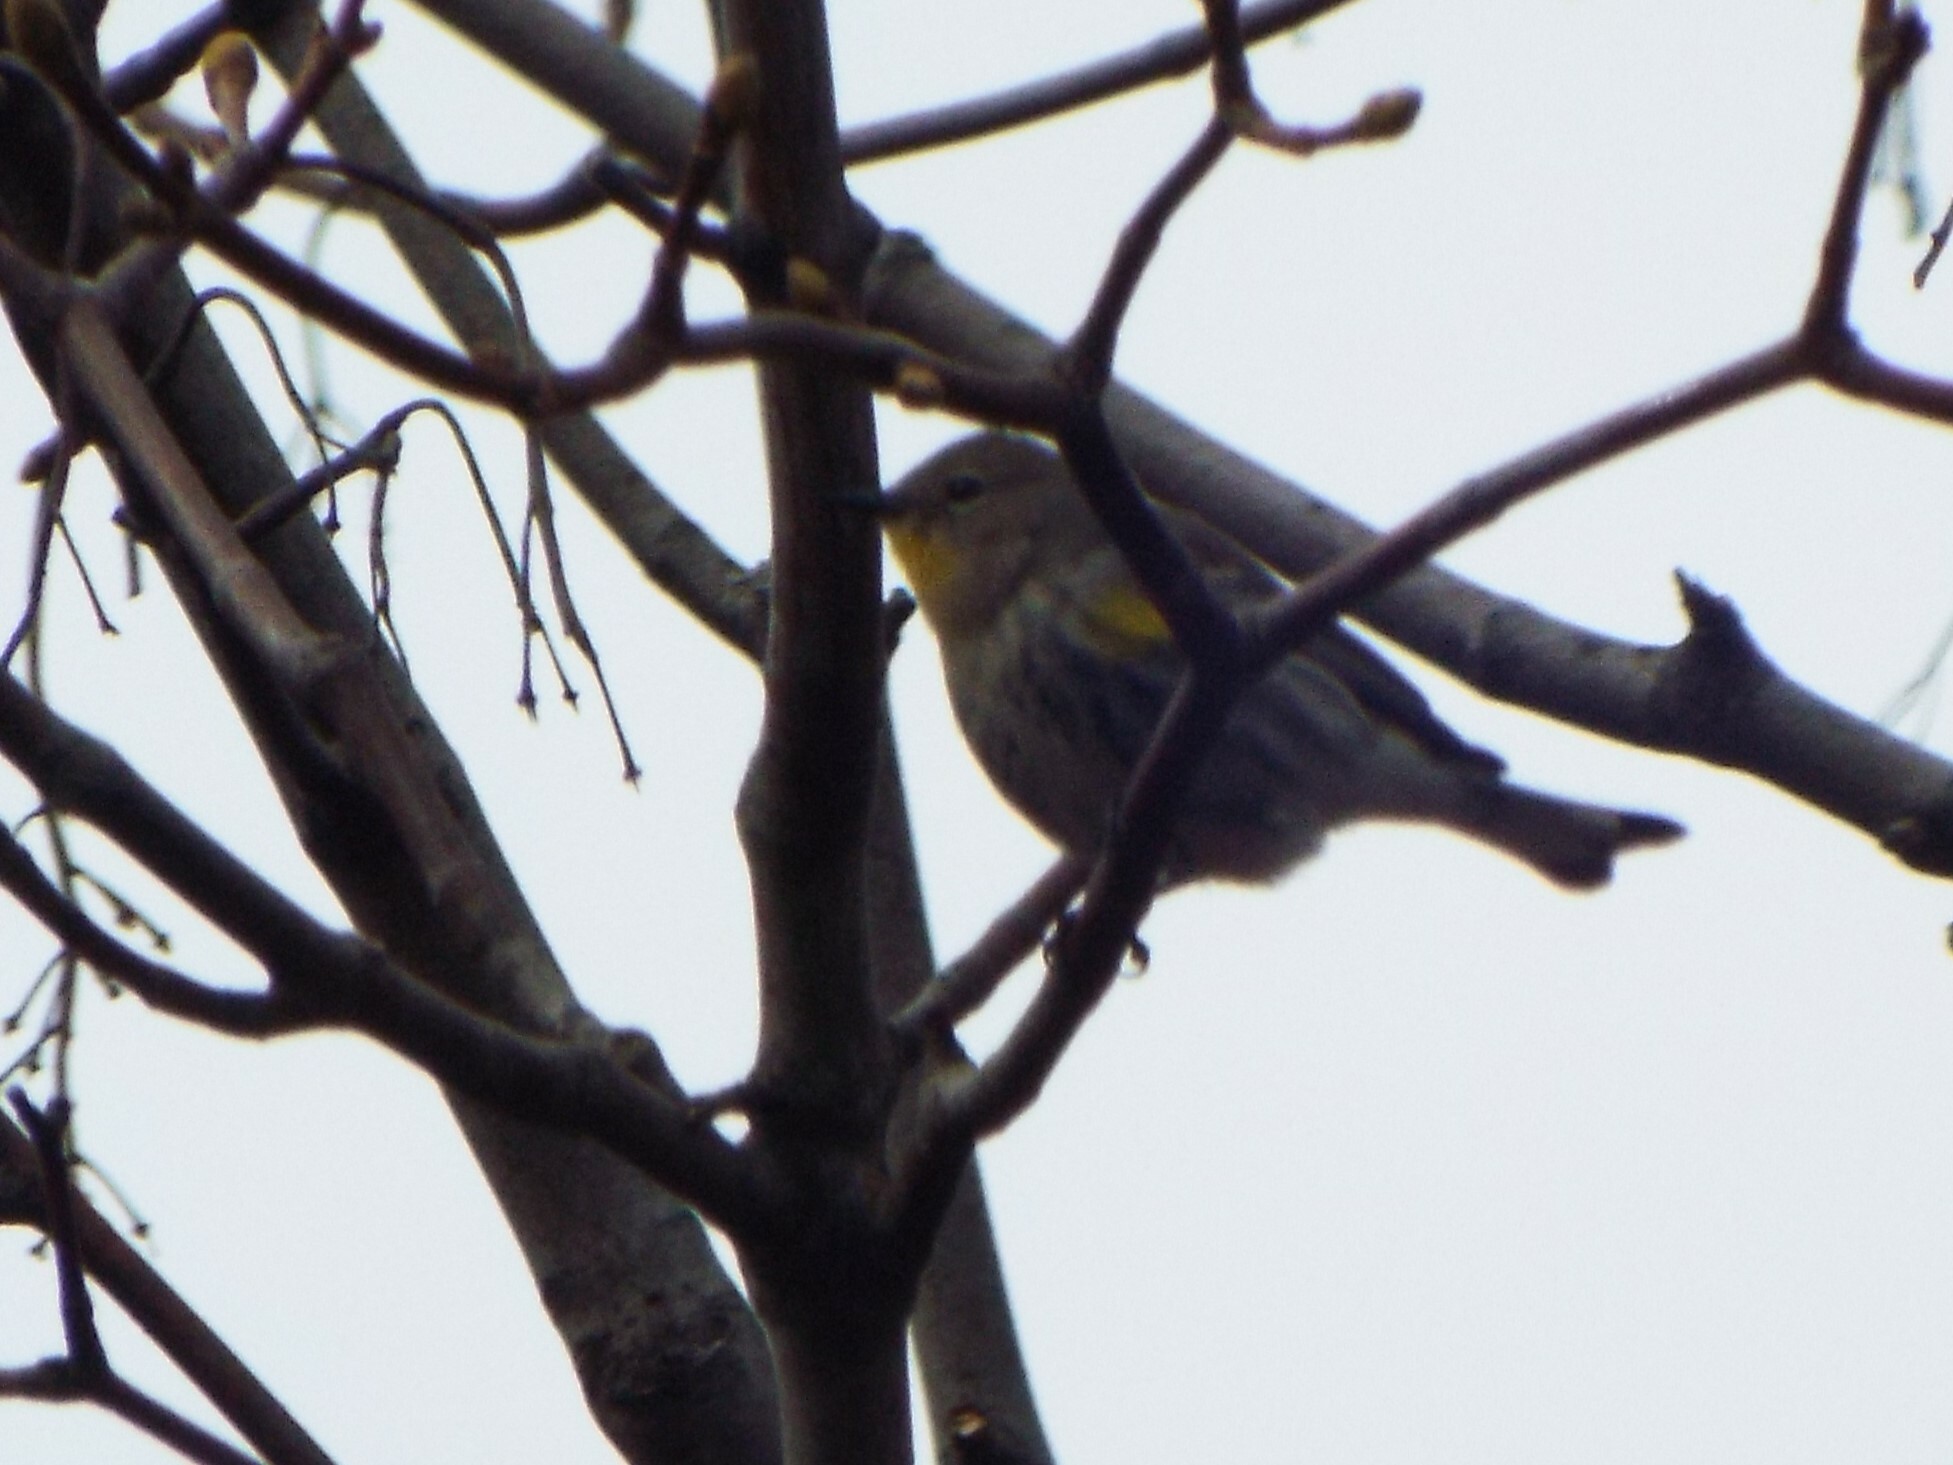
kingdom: Animalia
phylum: Chordata
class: Aves
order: Passeriformes
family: Parulidae
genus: Setophaga
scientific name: Setophaga auduboni
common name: Audubon's warbler
